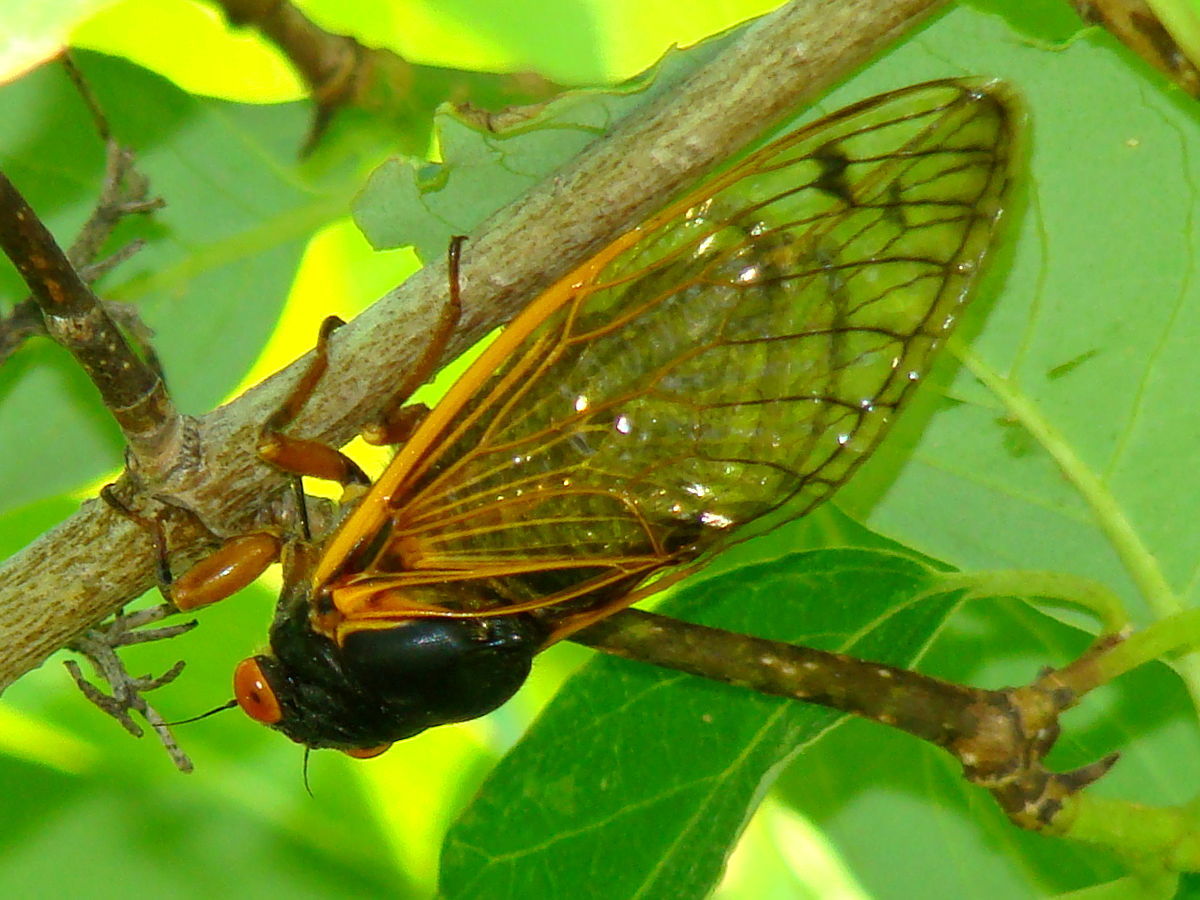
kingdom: Animalia
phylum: Arthropoda
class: Insecta
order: Hemiptera
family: Cicadidae
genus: Magicicada
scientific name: Magicicada cassini
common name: Cassin's 17-year cicada
